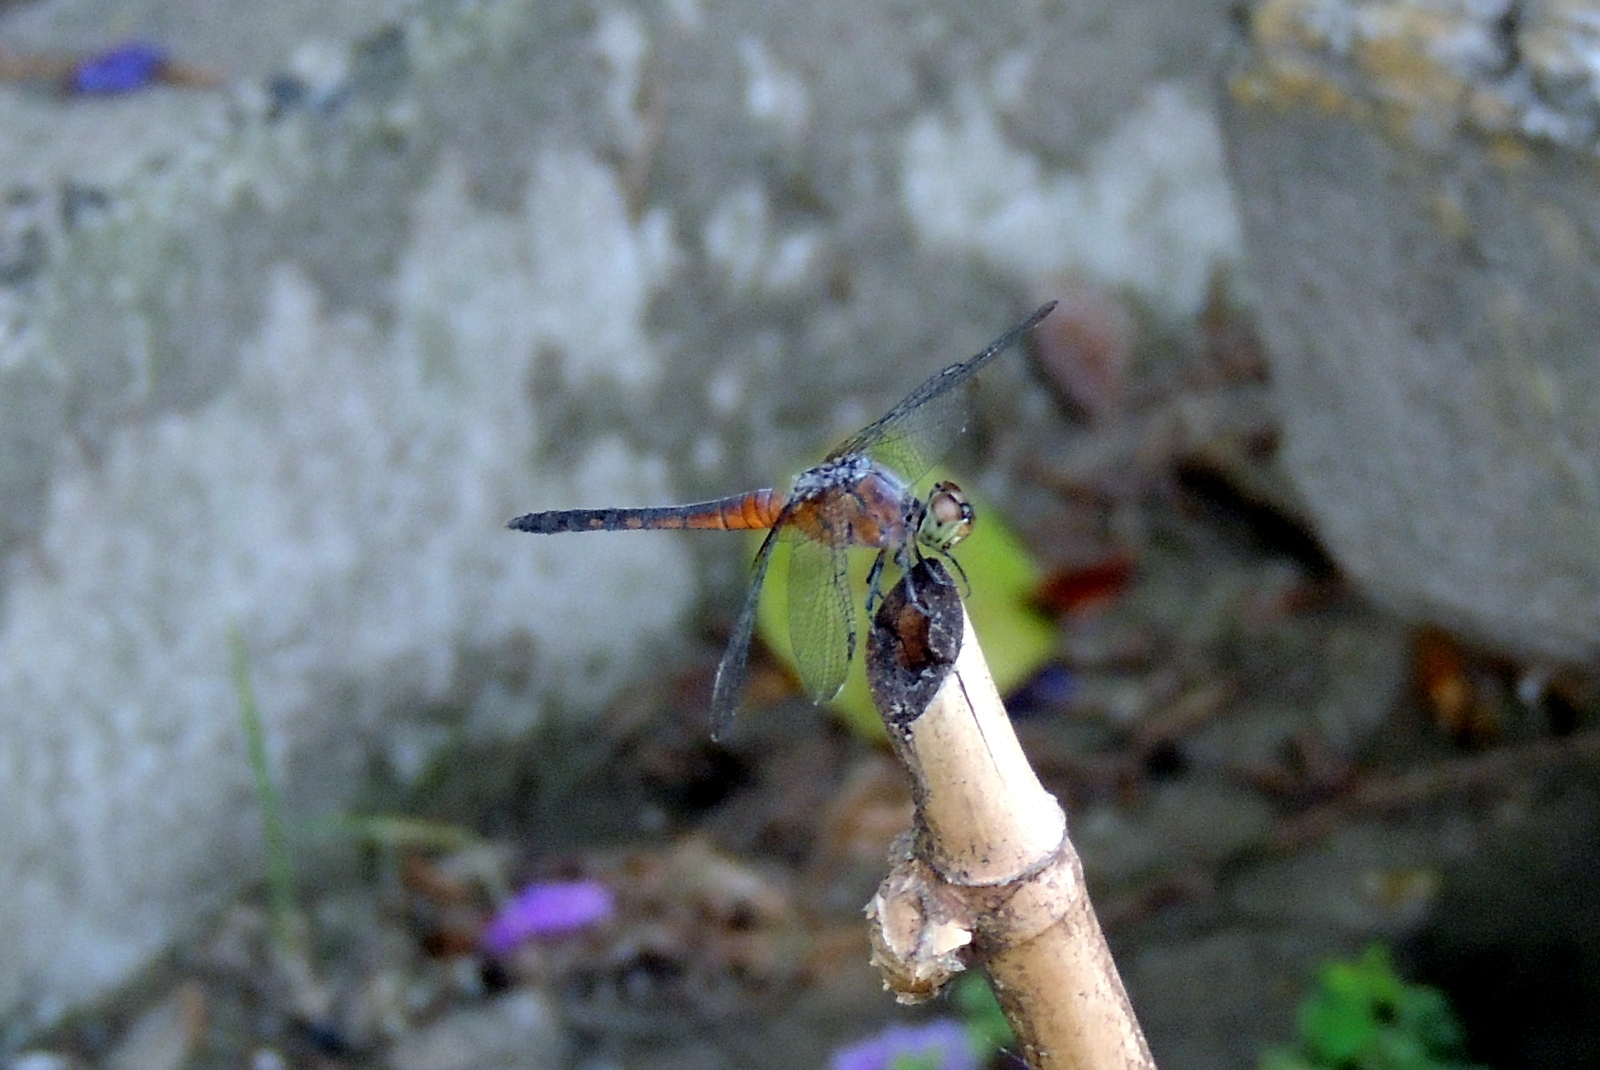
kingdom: Animalia
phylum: Arthropoda
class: Insecta
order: Odonata
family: Libellulidae
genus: Brachydiplax
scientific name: Brachydiplax chalybea
